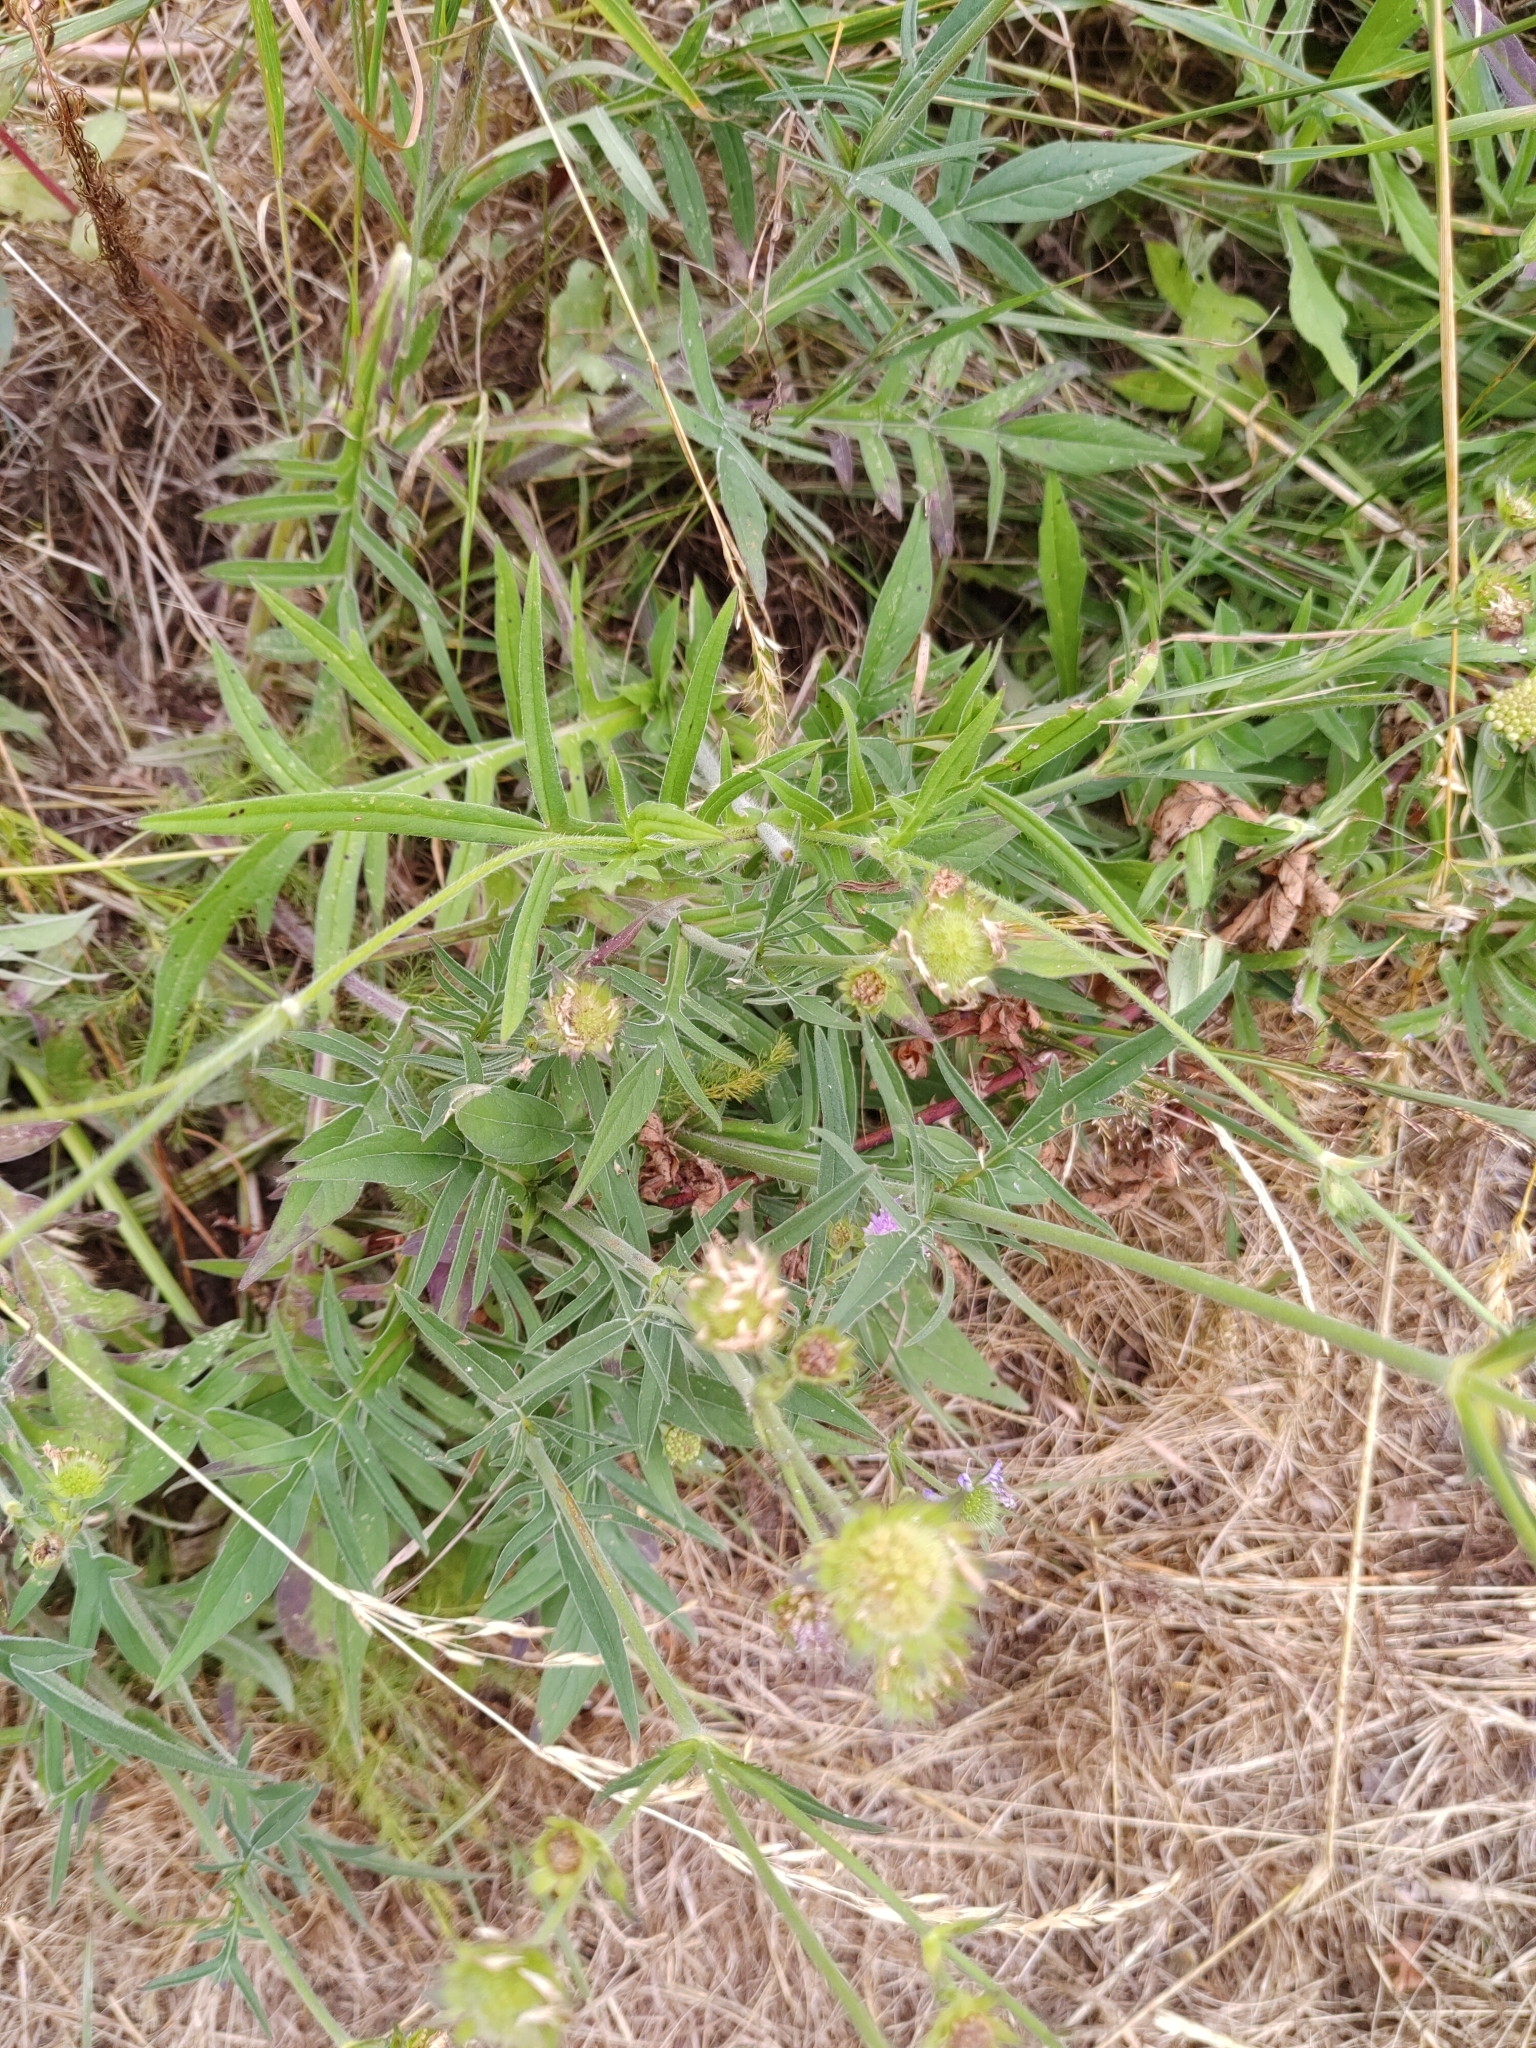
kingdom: Plantae
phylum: Tracheophyta
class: Magnoliopsida
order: Dipsacales
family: Caprifoliaceae
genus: Knautia
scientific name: Knautia arvensis
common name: Field scabiosa
